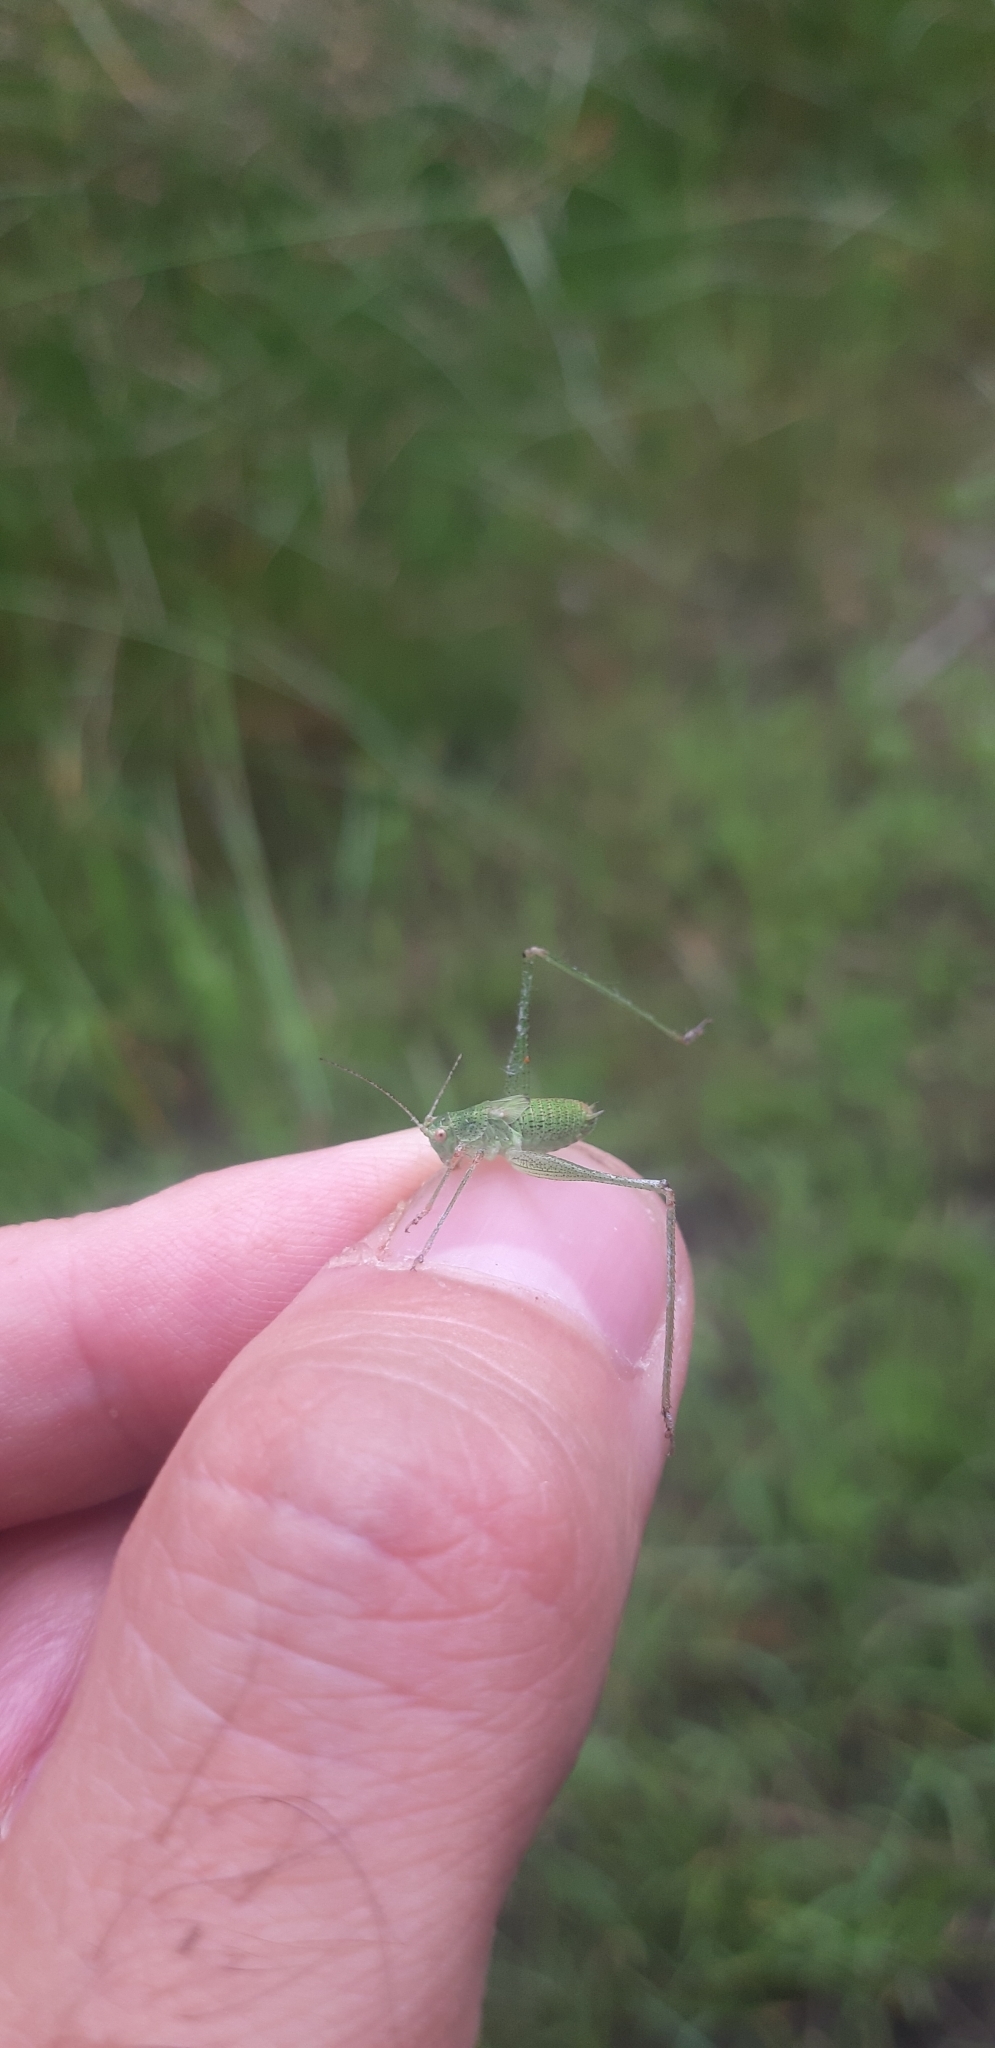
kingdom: Animalia
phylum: Arthropoda
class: Insecta
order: Orthoptera
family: Tettigoniidae
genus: Phaneroptera
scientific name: Phaneroptera nana
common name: Southern sickle bush-cricket
